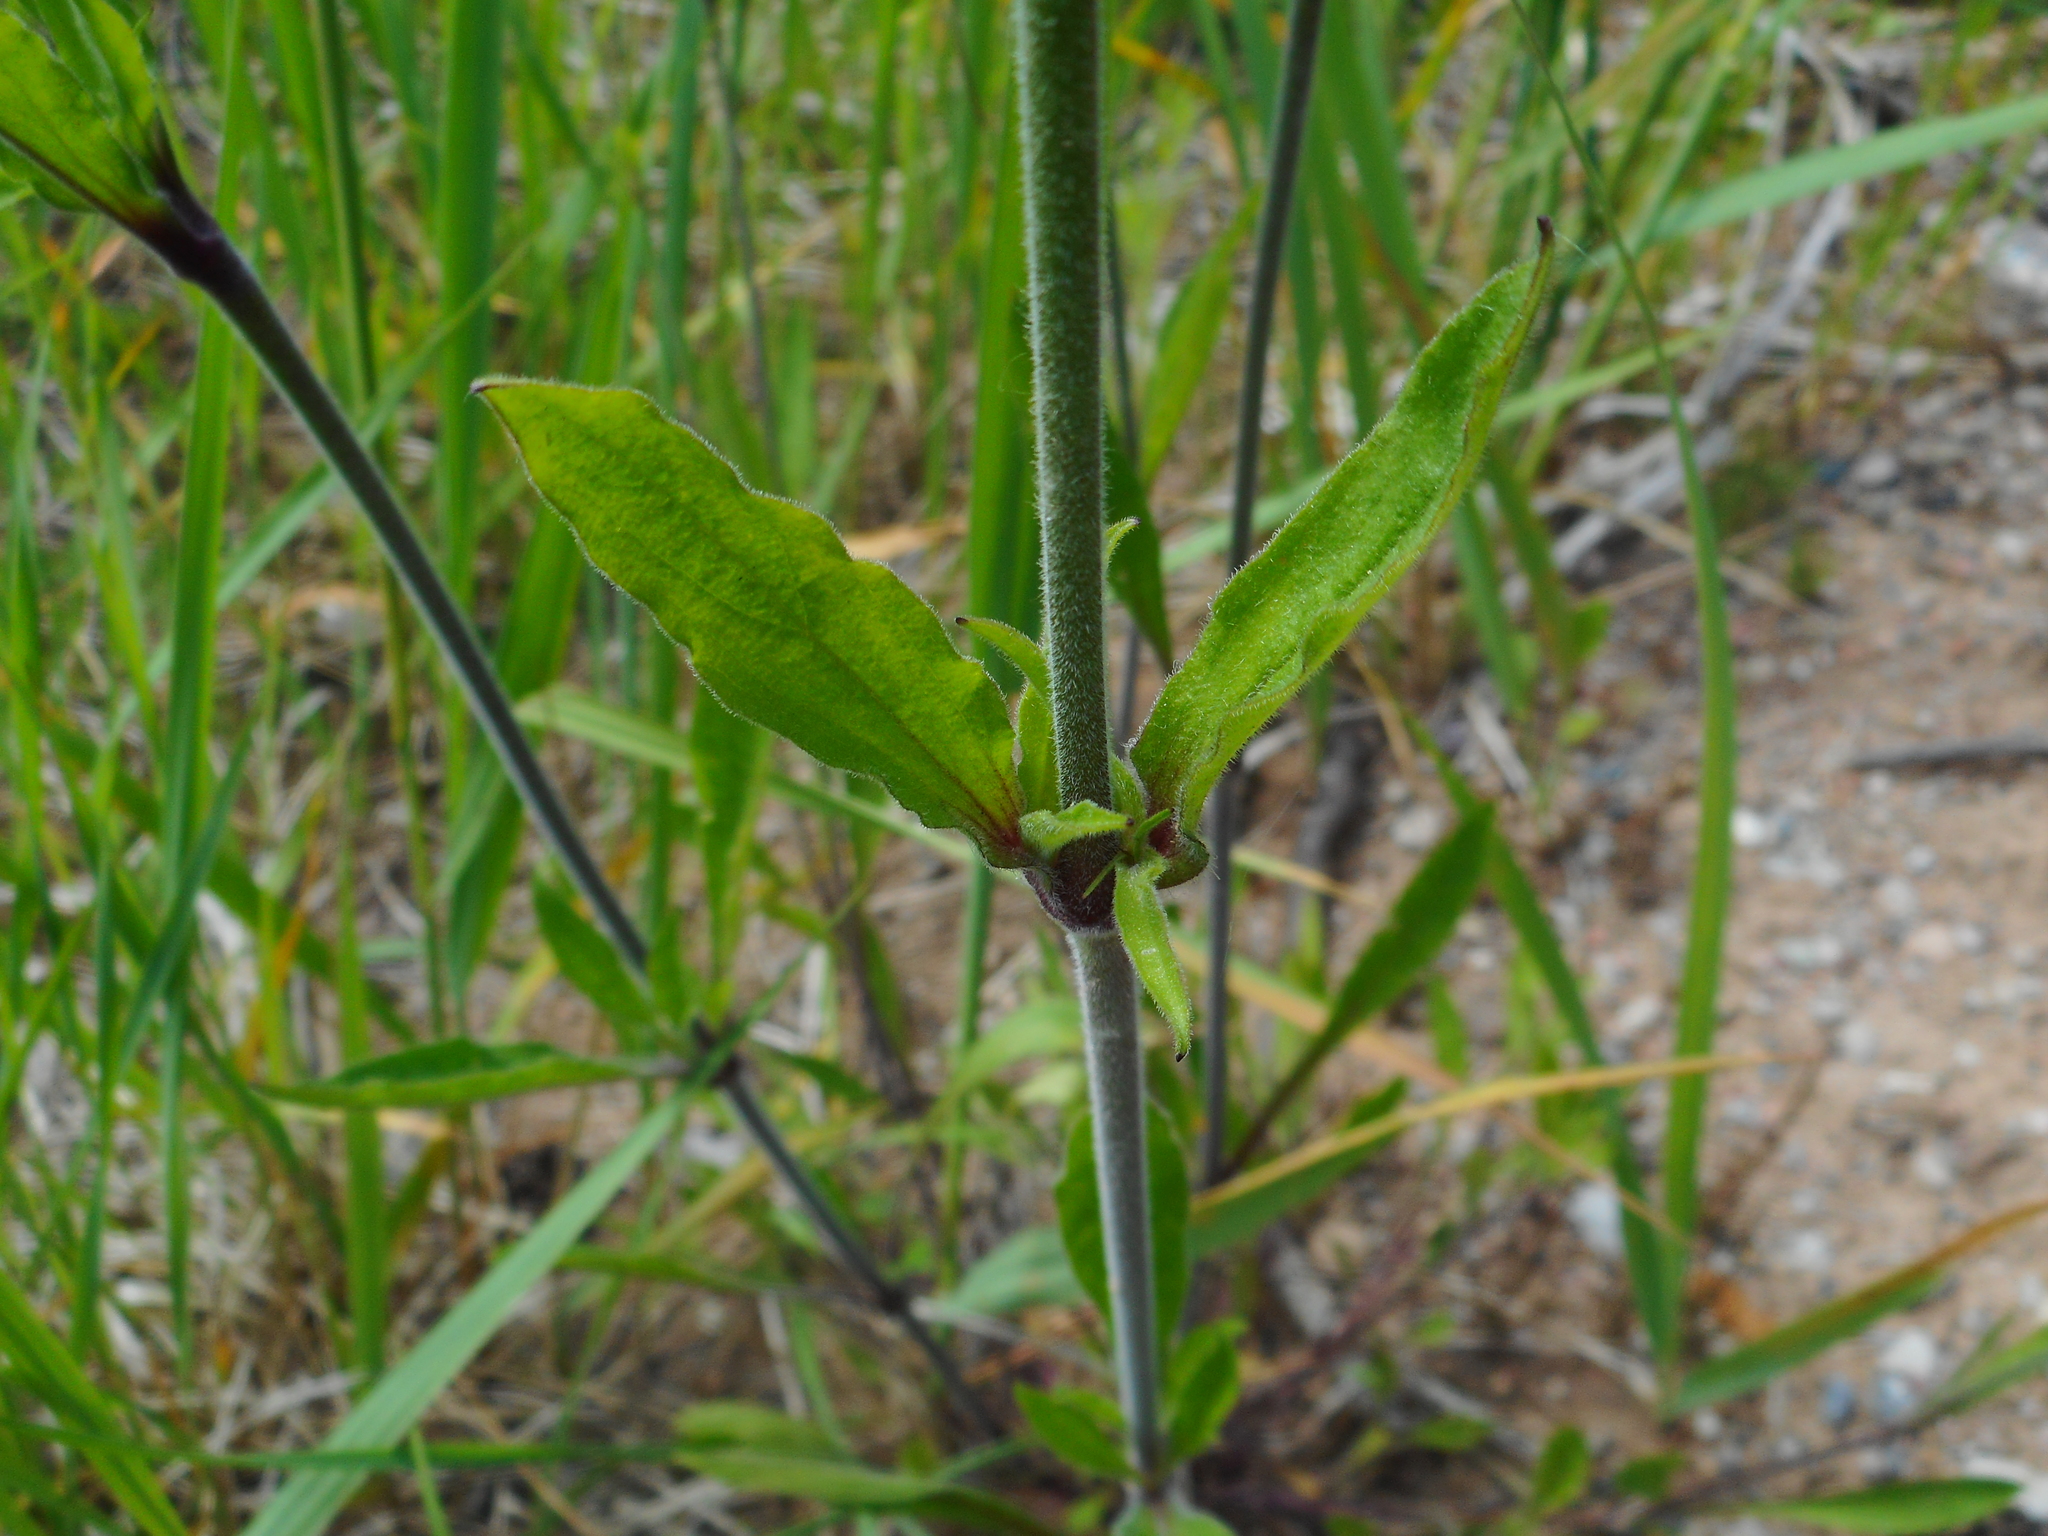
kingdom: Plantae
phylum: Tracheophyta
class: Magnoliopsida
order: Caryophyllales
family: Caryophyllaceae
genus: Silene
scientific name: Silene nutans
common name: Nottingham catchfly
